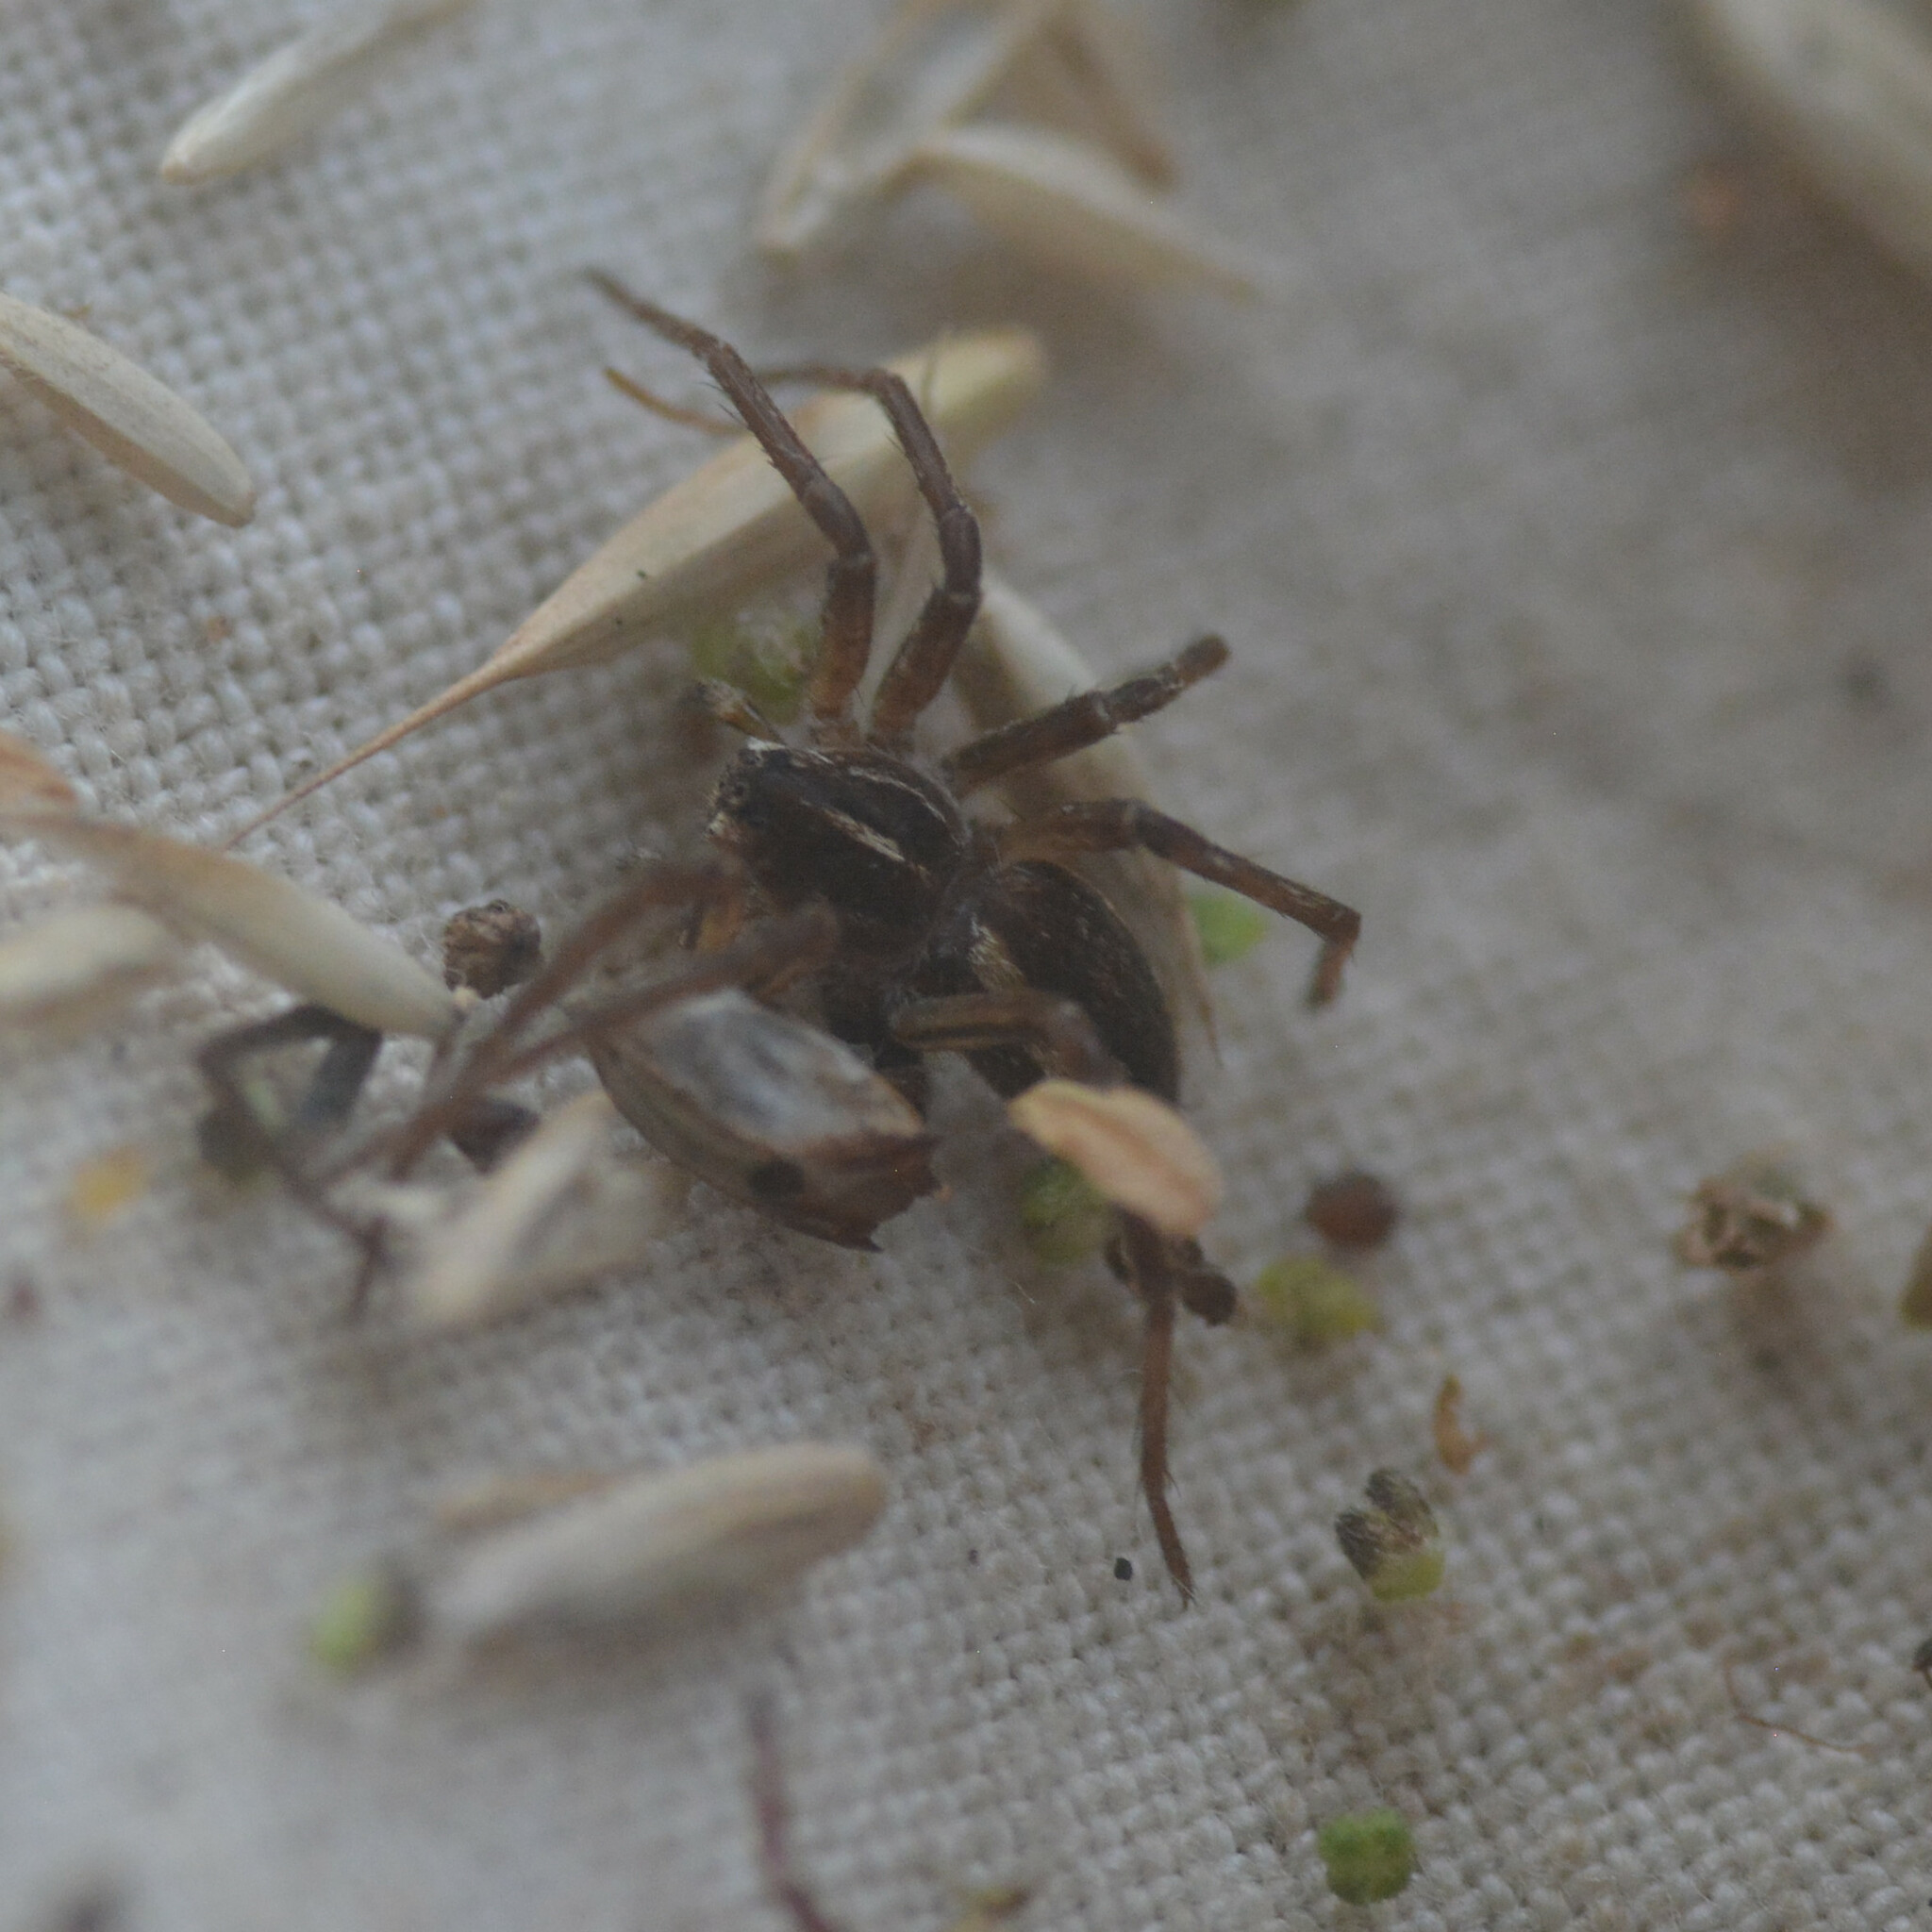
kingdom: Animalia
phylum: Arthropoda
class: Arachnida
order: Araneae
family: Pisauridae
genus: Pisaura
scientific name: Pisaura mirabilis
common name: Tent spider
